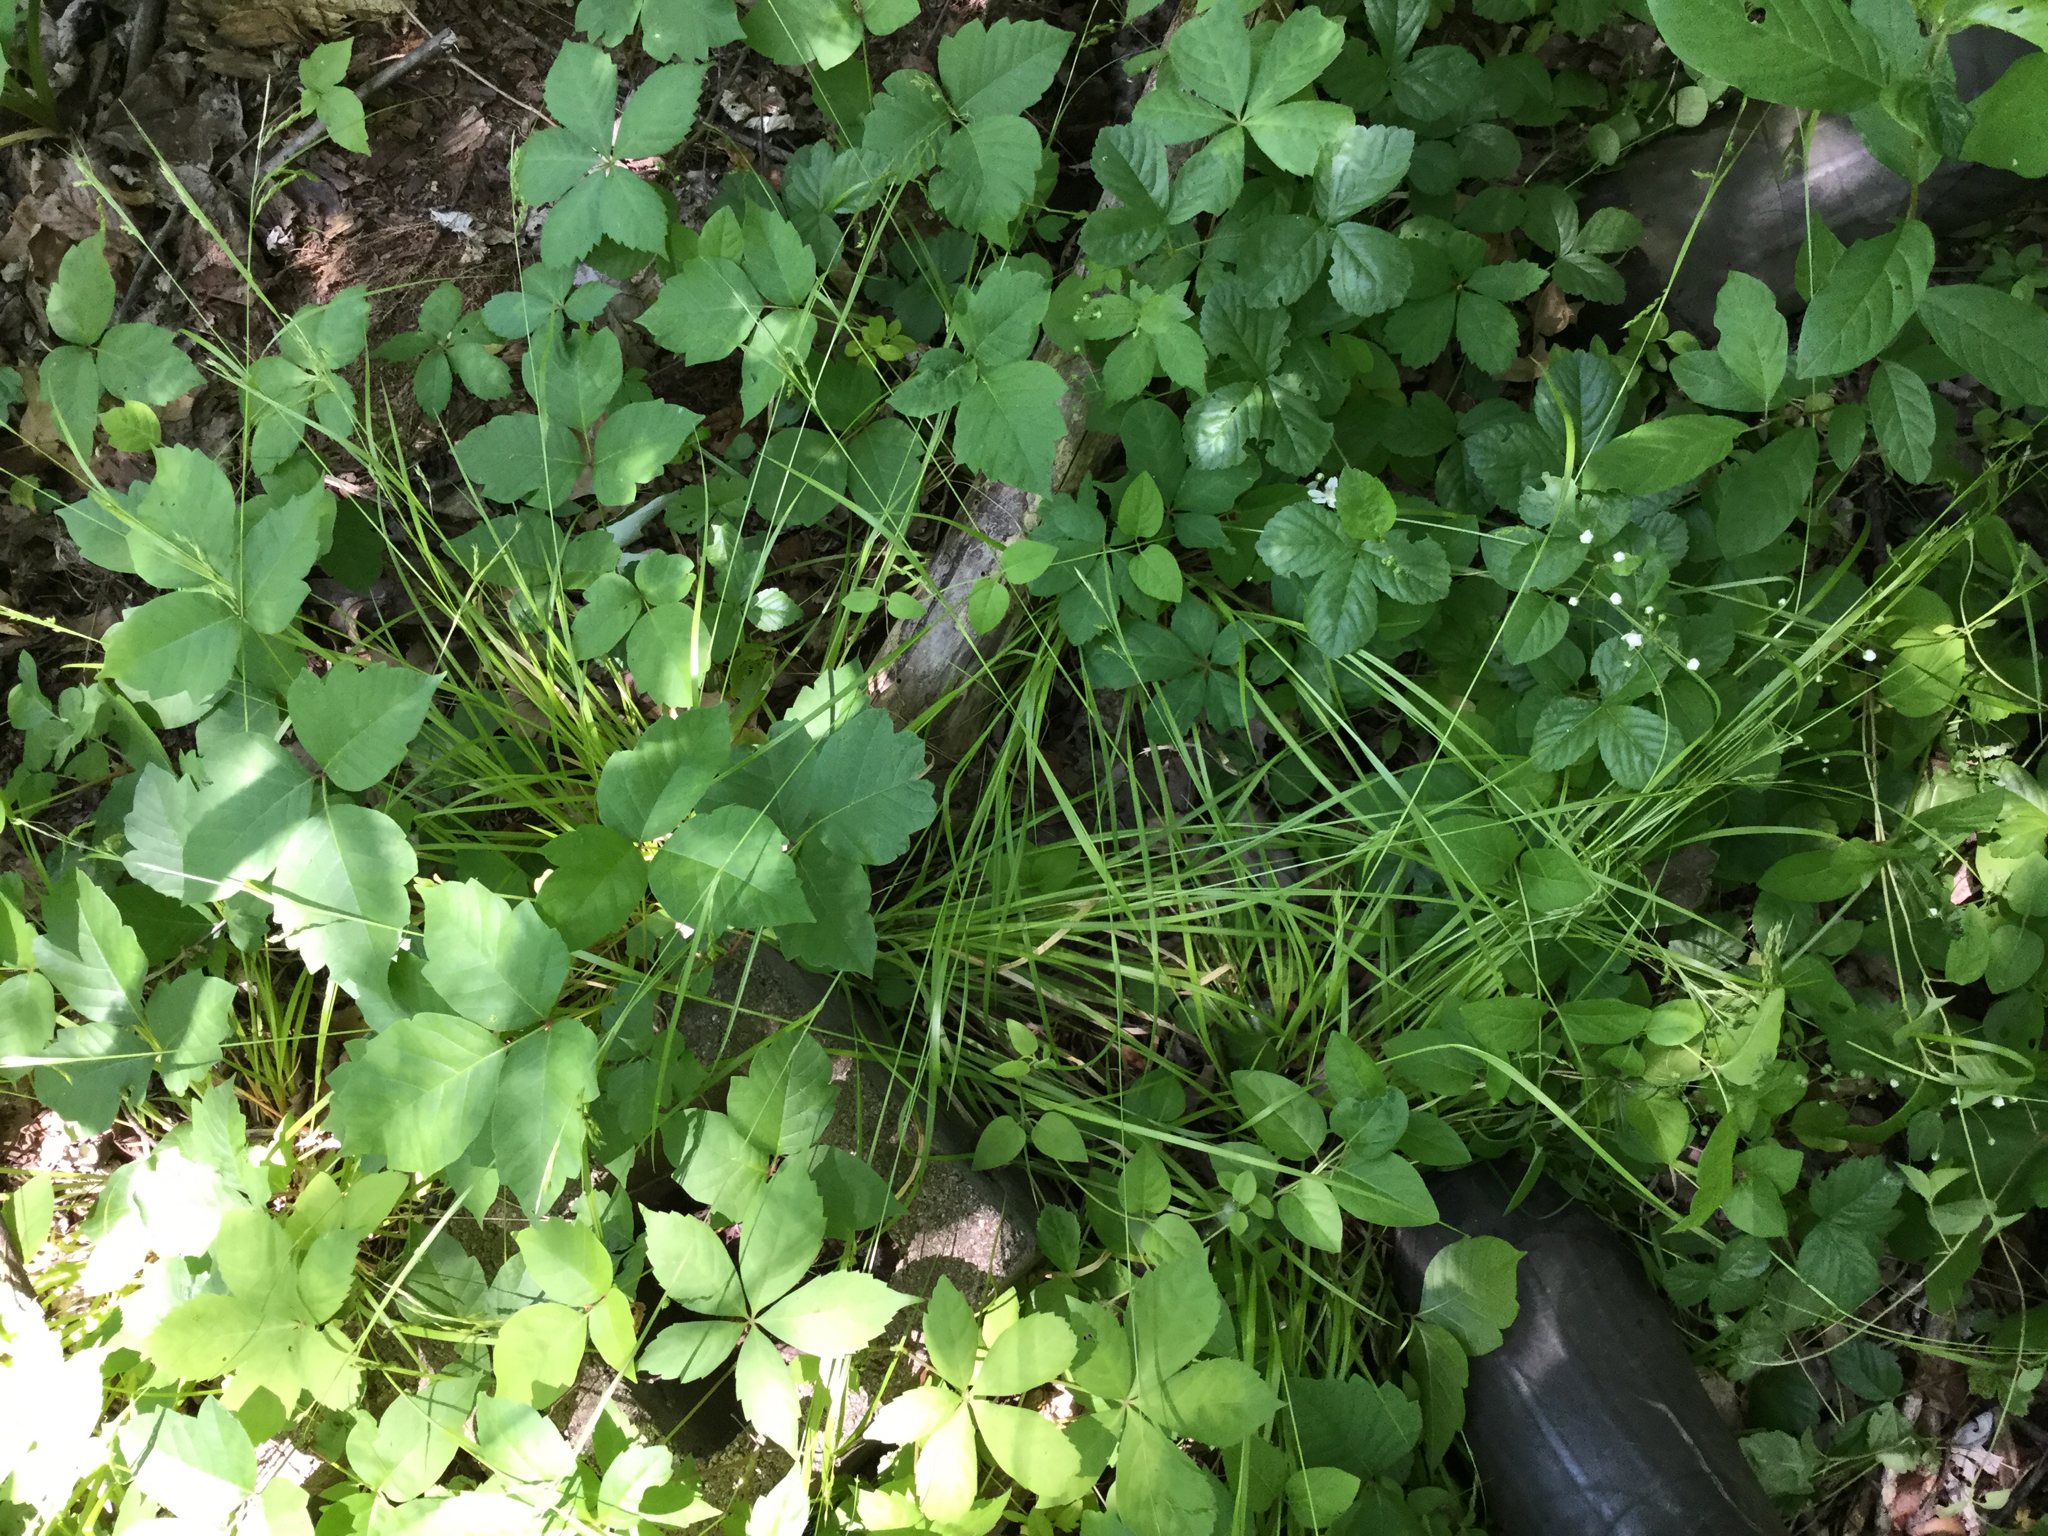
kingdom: Plantae
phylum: Tracheophyta
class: Liliopsida
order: Poales
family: Cyperaceae
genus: Carex
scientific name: Carex debilis
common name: White-edge sedge
